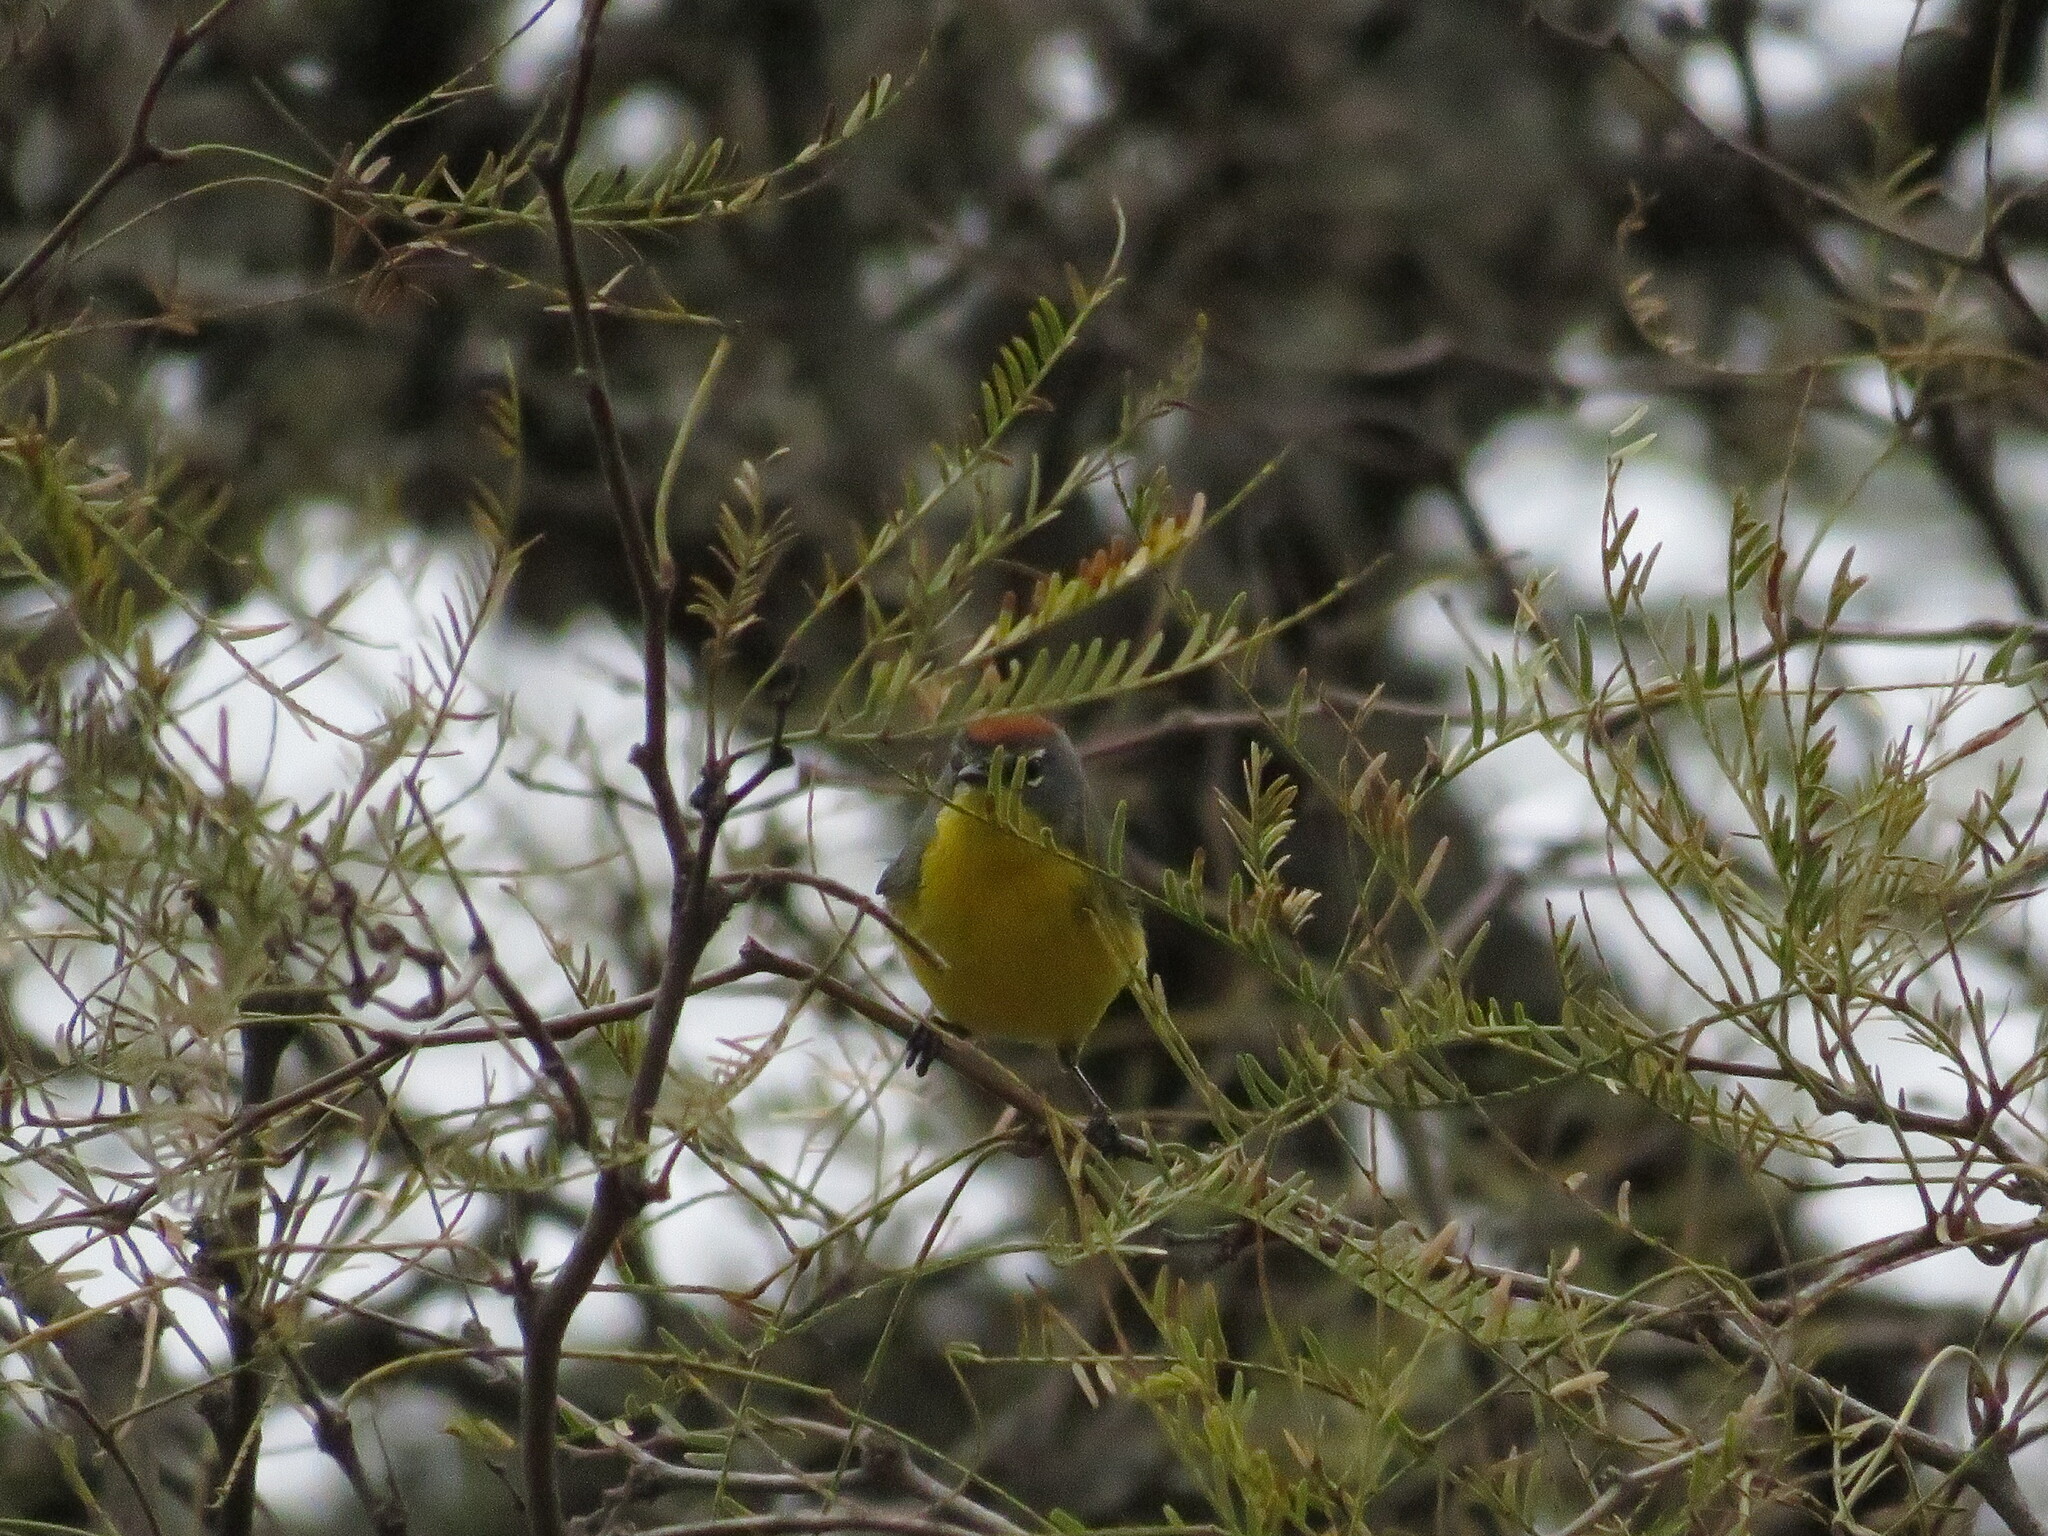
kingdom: Animalia
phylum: Chordata
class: Aves
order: Passeriformes
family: Parulidae
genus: Myioborus
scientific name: Myioborus brunniceps
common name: Brown-capped whitestart
